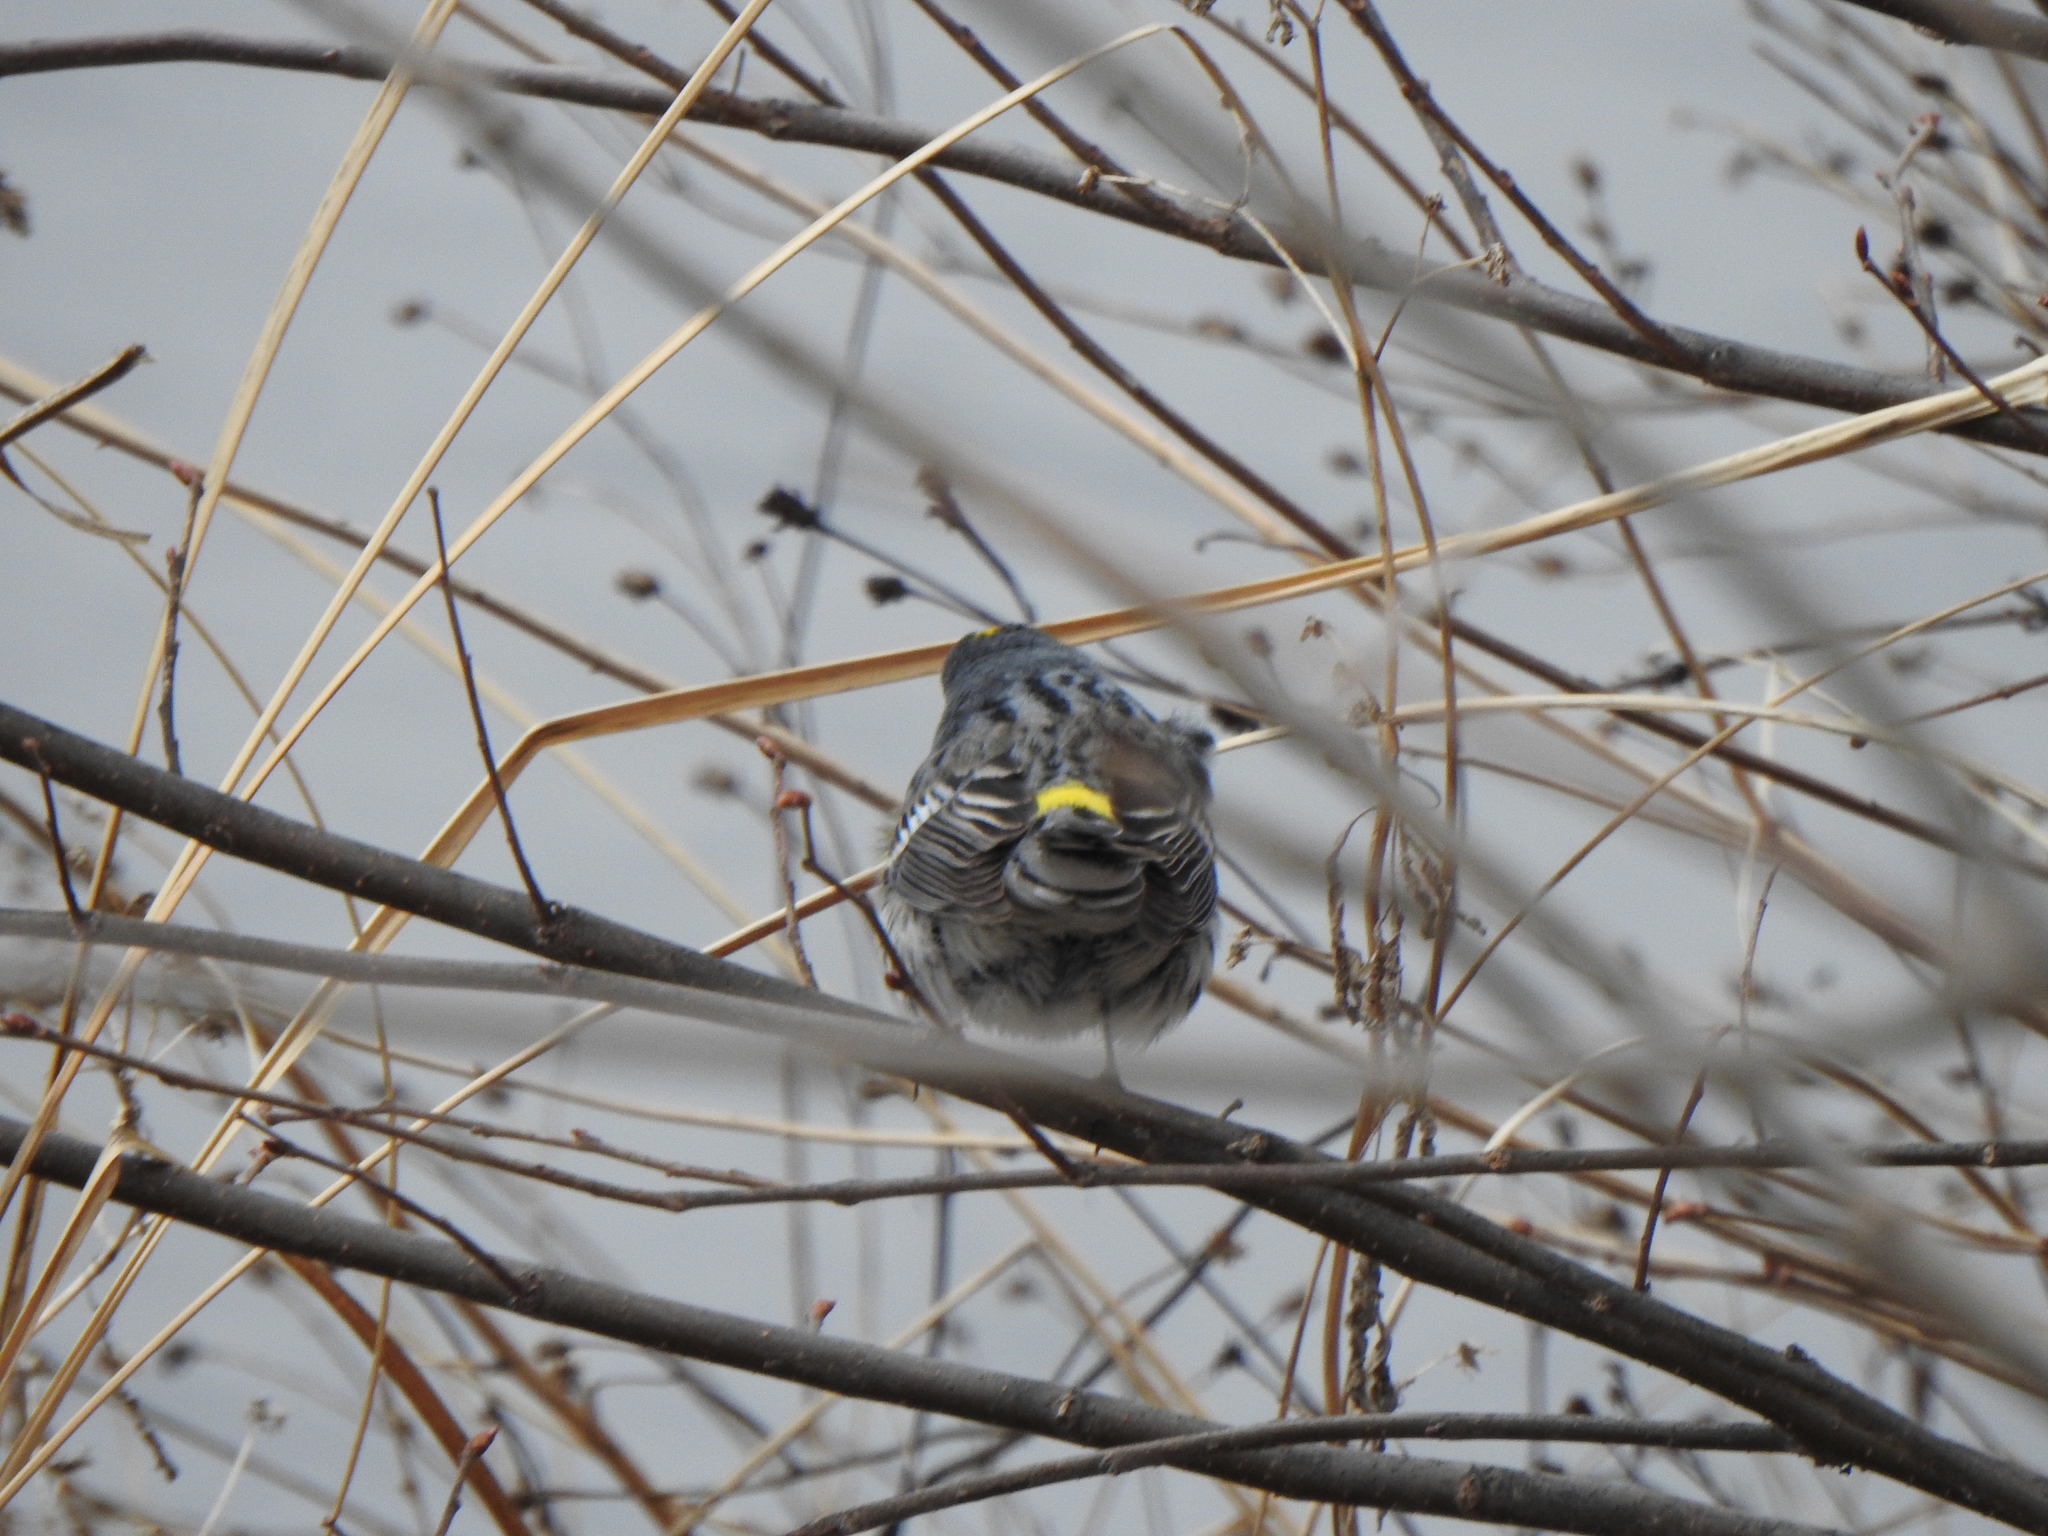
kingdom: Animalia
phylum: Chordata
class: Aves
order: Passeriformes
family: Parulidae
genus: Setophaga
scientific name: Setophaga coronata
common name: Myrtle warbler
